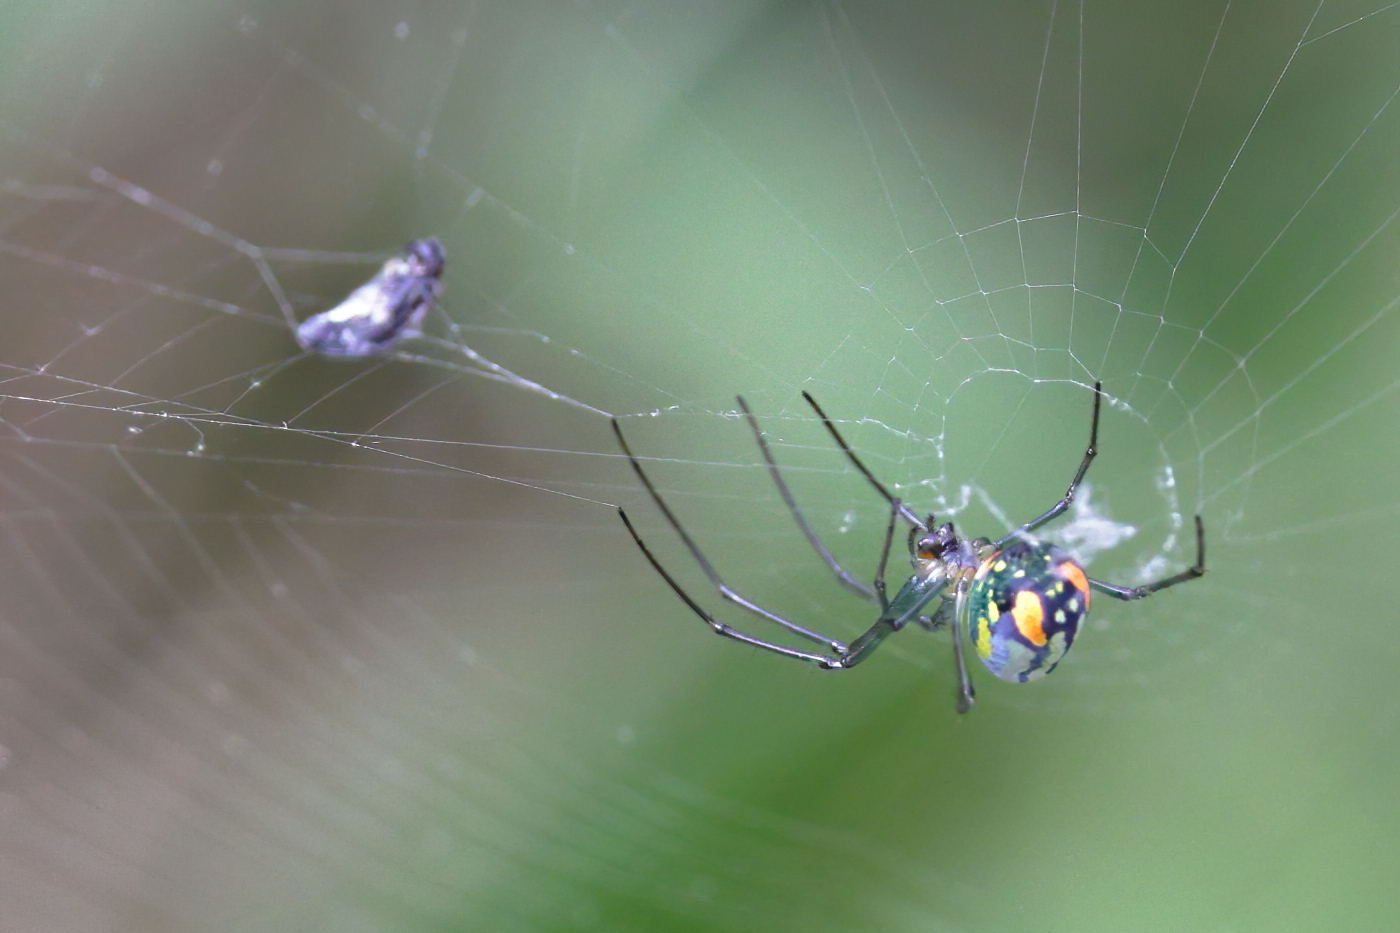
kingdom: Animalia
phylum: Arthropoda
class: Arachnida
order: Araneae
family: Tetragnathidae
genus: Leucauge
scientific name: Leucauge argyrobapta
